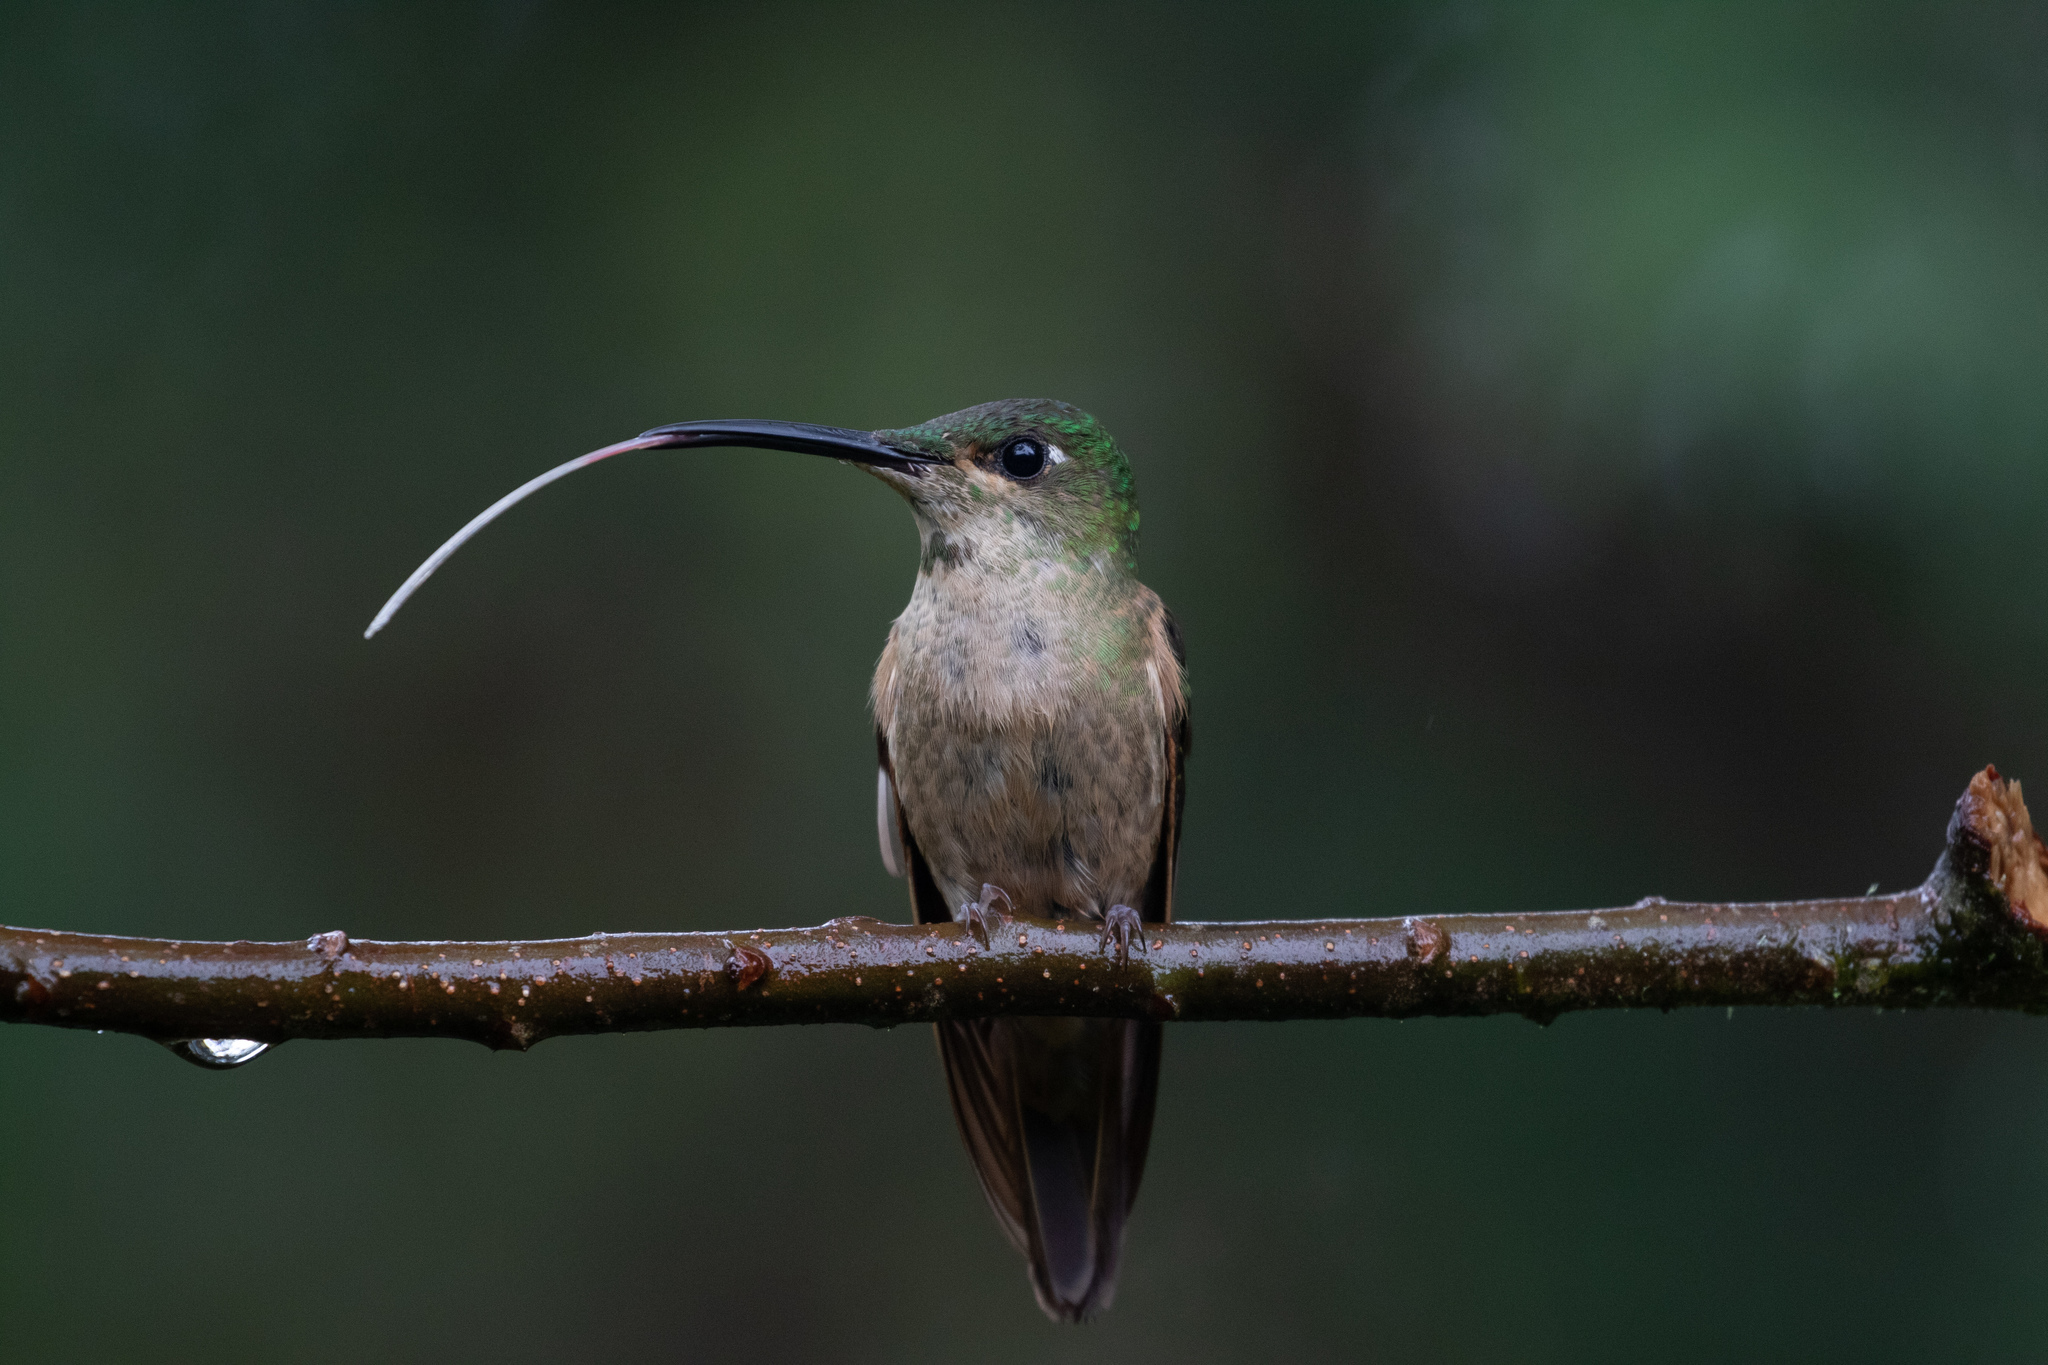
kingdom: Animalia
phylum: Chordata
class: Aves
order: Apodiformes
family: Trochilidae
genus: Heliodoxa
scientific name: Heliodoxa rubinoides
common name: Fawn-breasted brilliant
